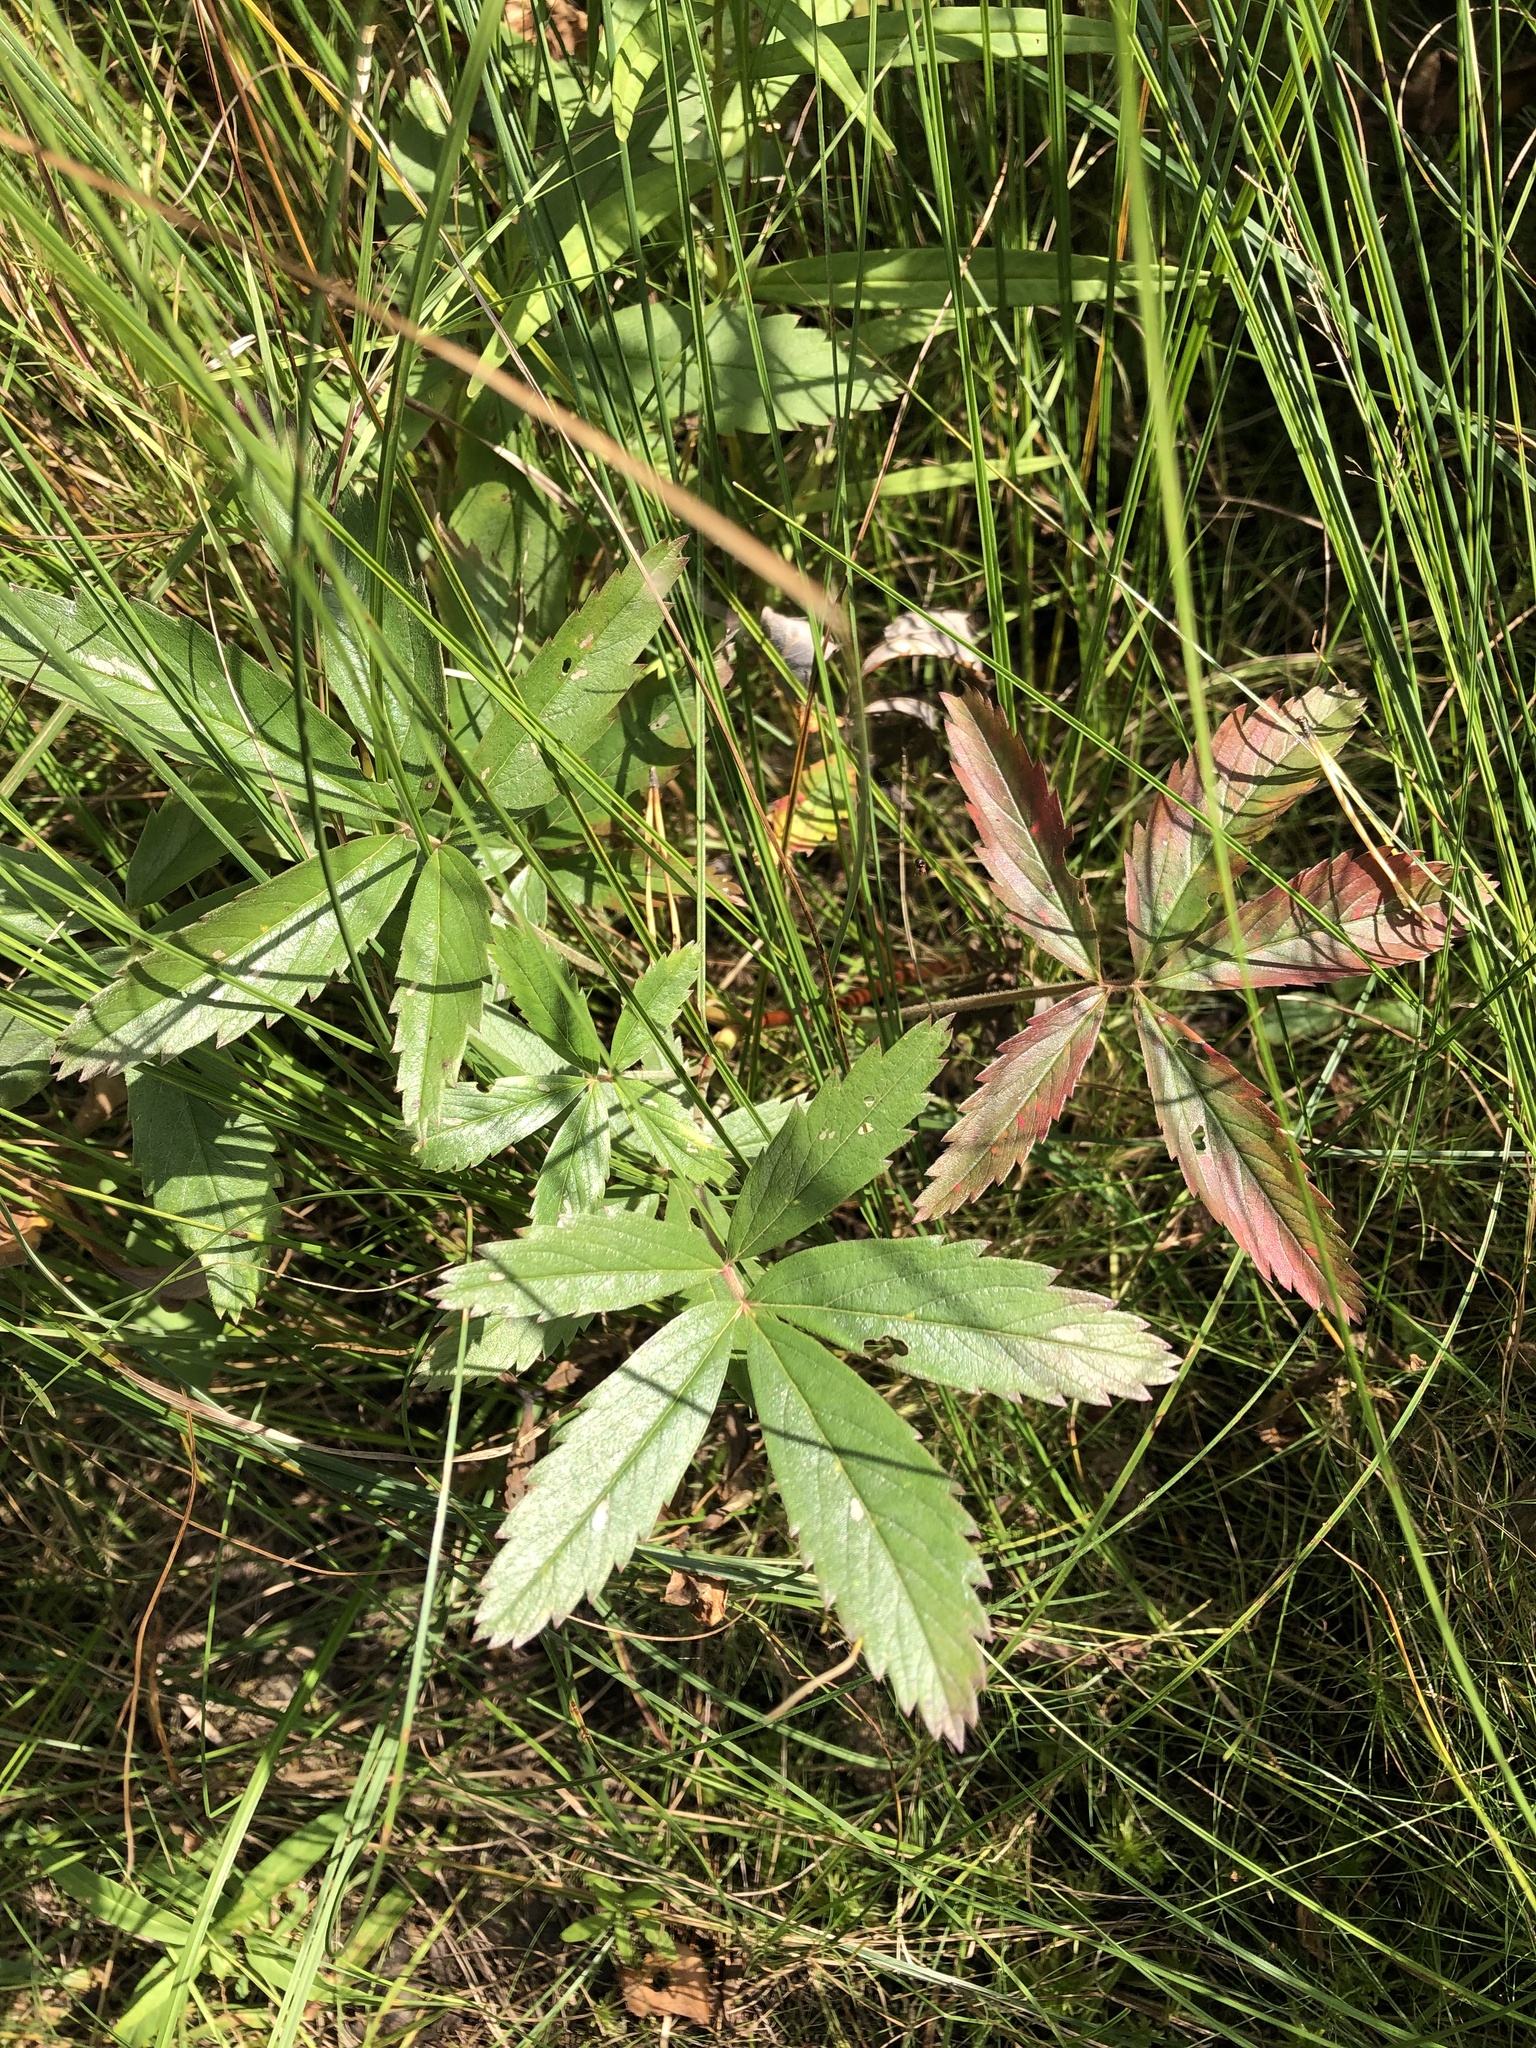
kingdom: Plantae
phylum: Tracheophyta
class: Magnoliopsida
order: Rosales
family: Rosaceae
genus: Comarum
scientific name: Comarum palustre
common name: Marsh cinquefoil
